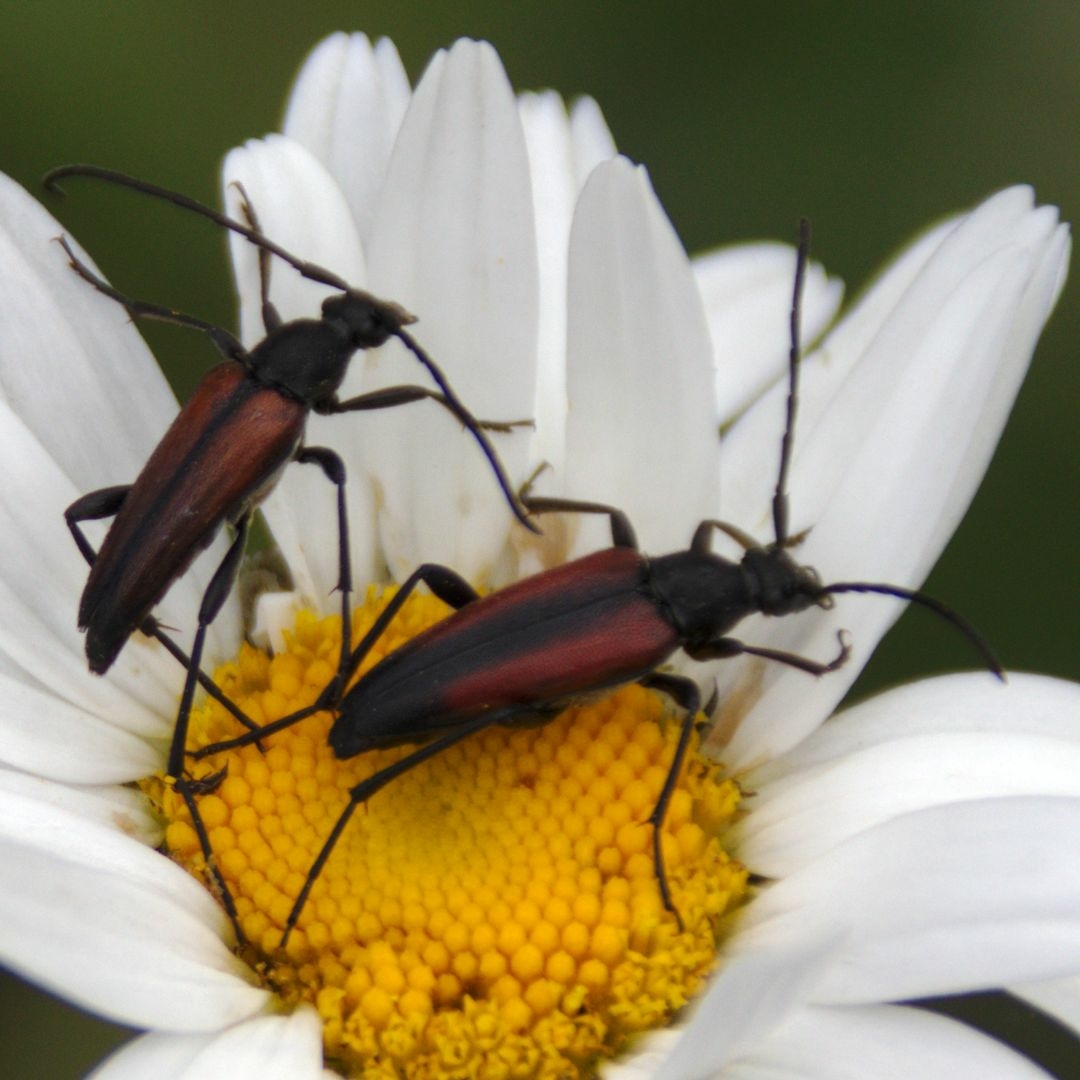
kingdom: Animalia
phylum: Arthropoda
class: Insecta
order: Coleoptera
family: Cerambycidae
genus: Stenurella
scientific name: Stenurella melanura
